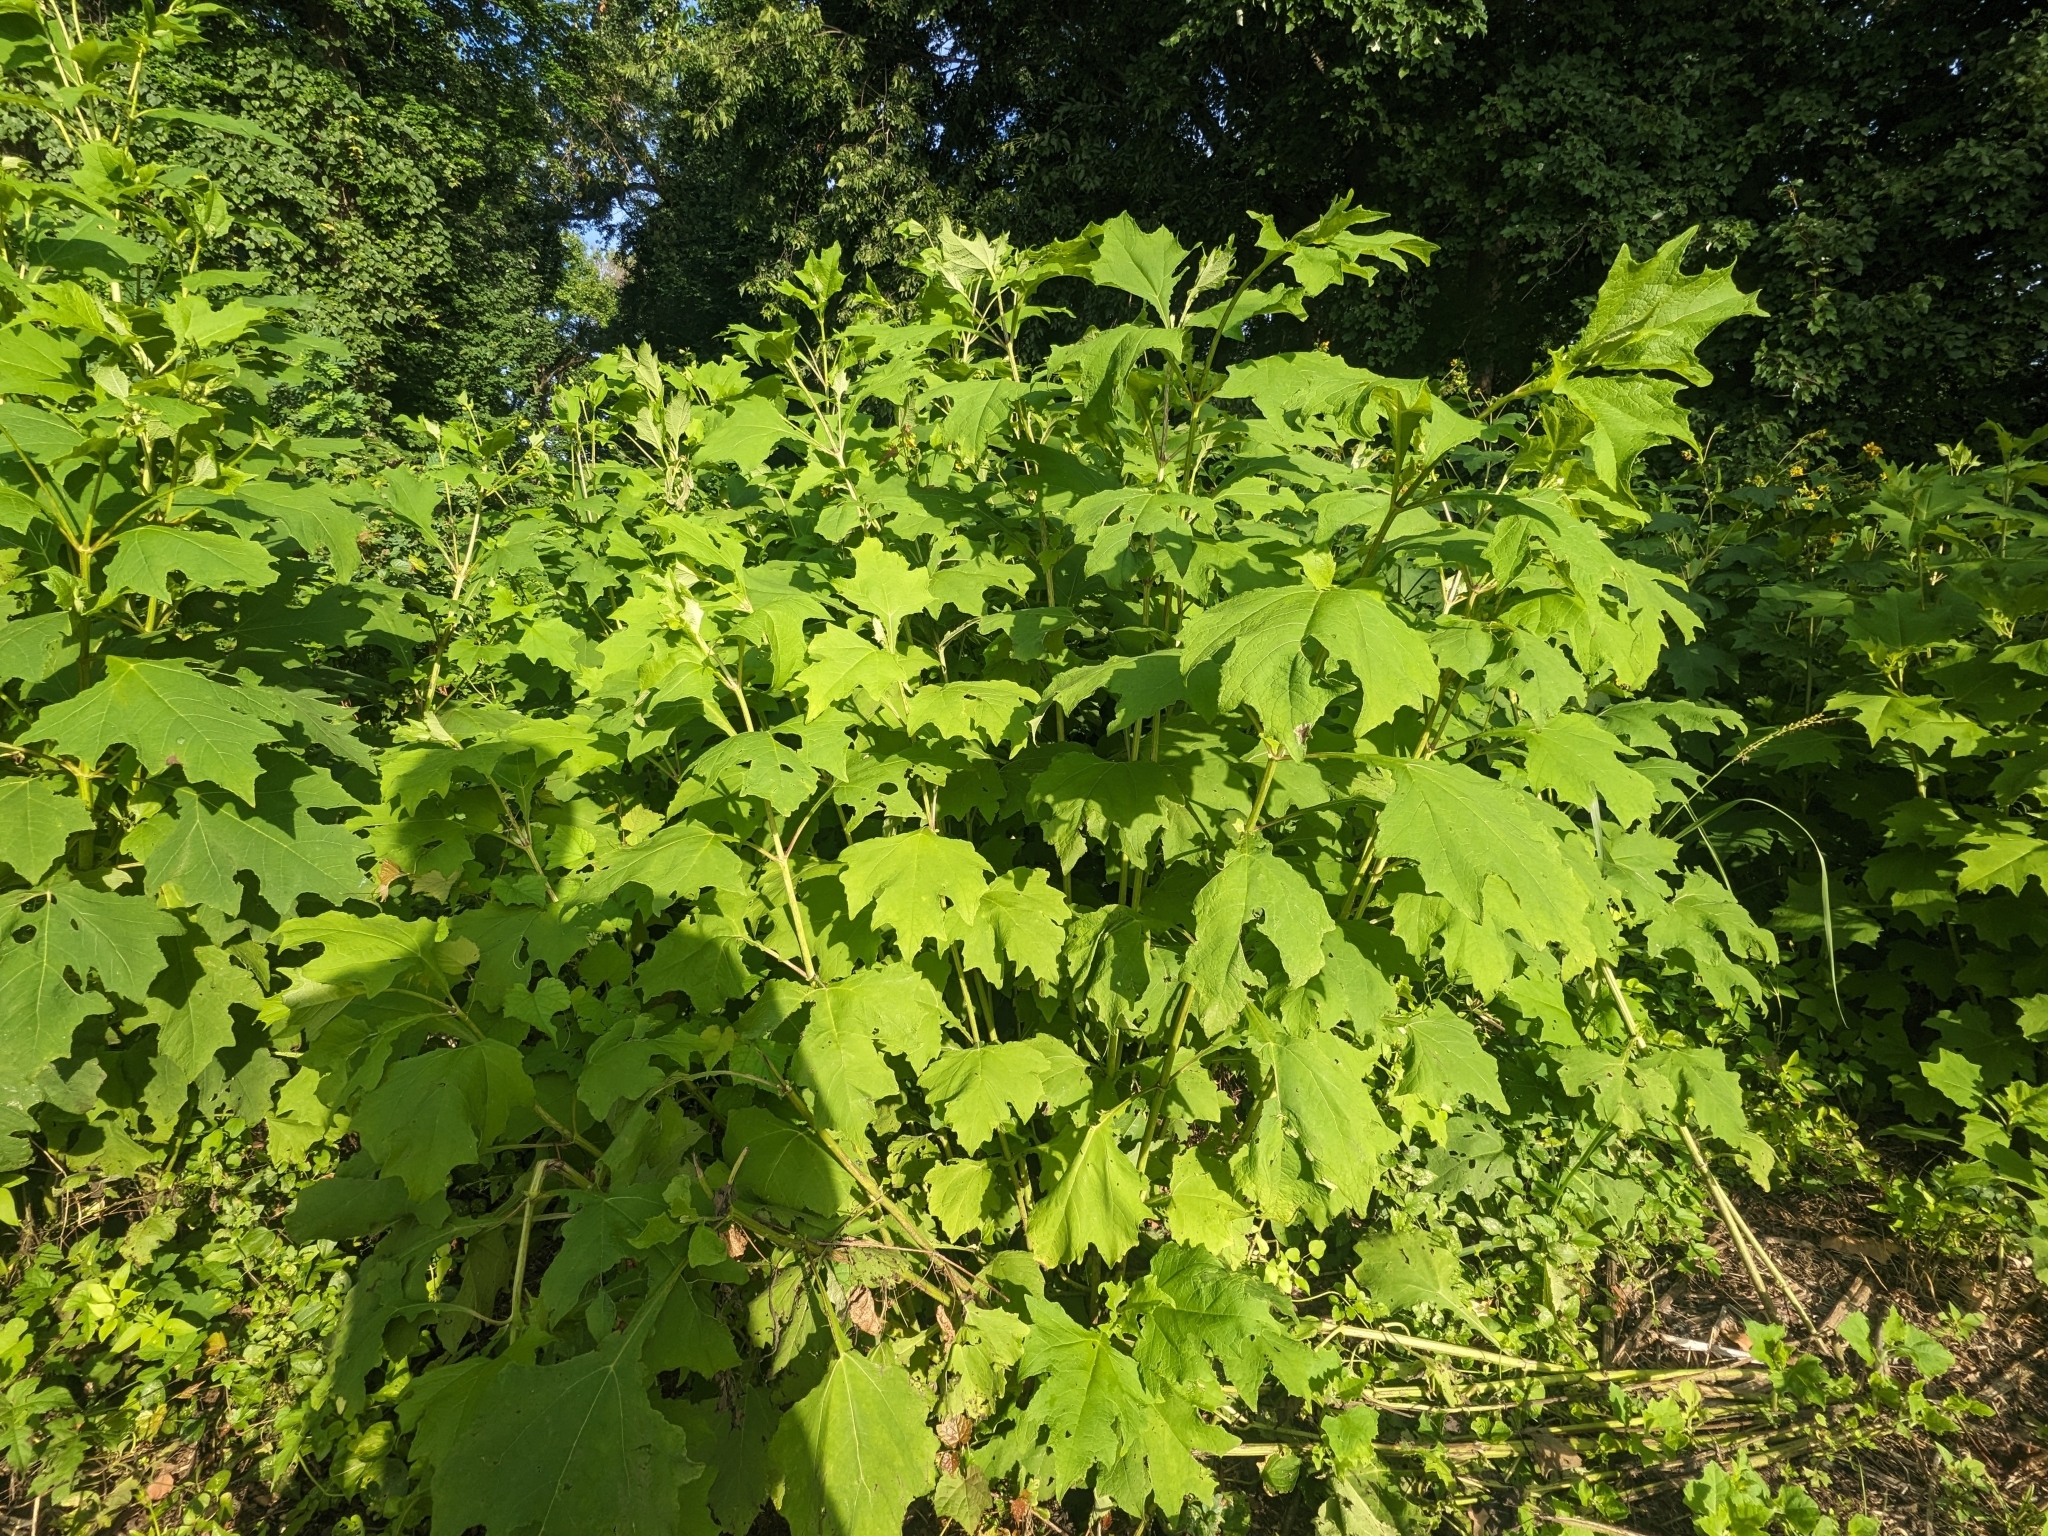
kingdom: Plantae
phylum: Tracheophyta
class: Magnoliopsida
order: Asterales
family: Asteraceae
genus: Smallanthus
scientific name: Smallanthus uvedalia
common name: Bear's-foot
